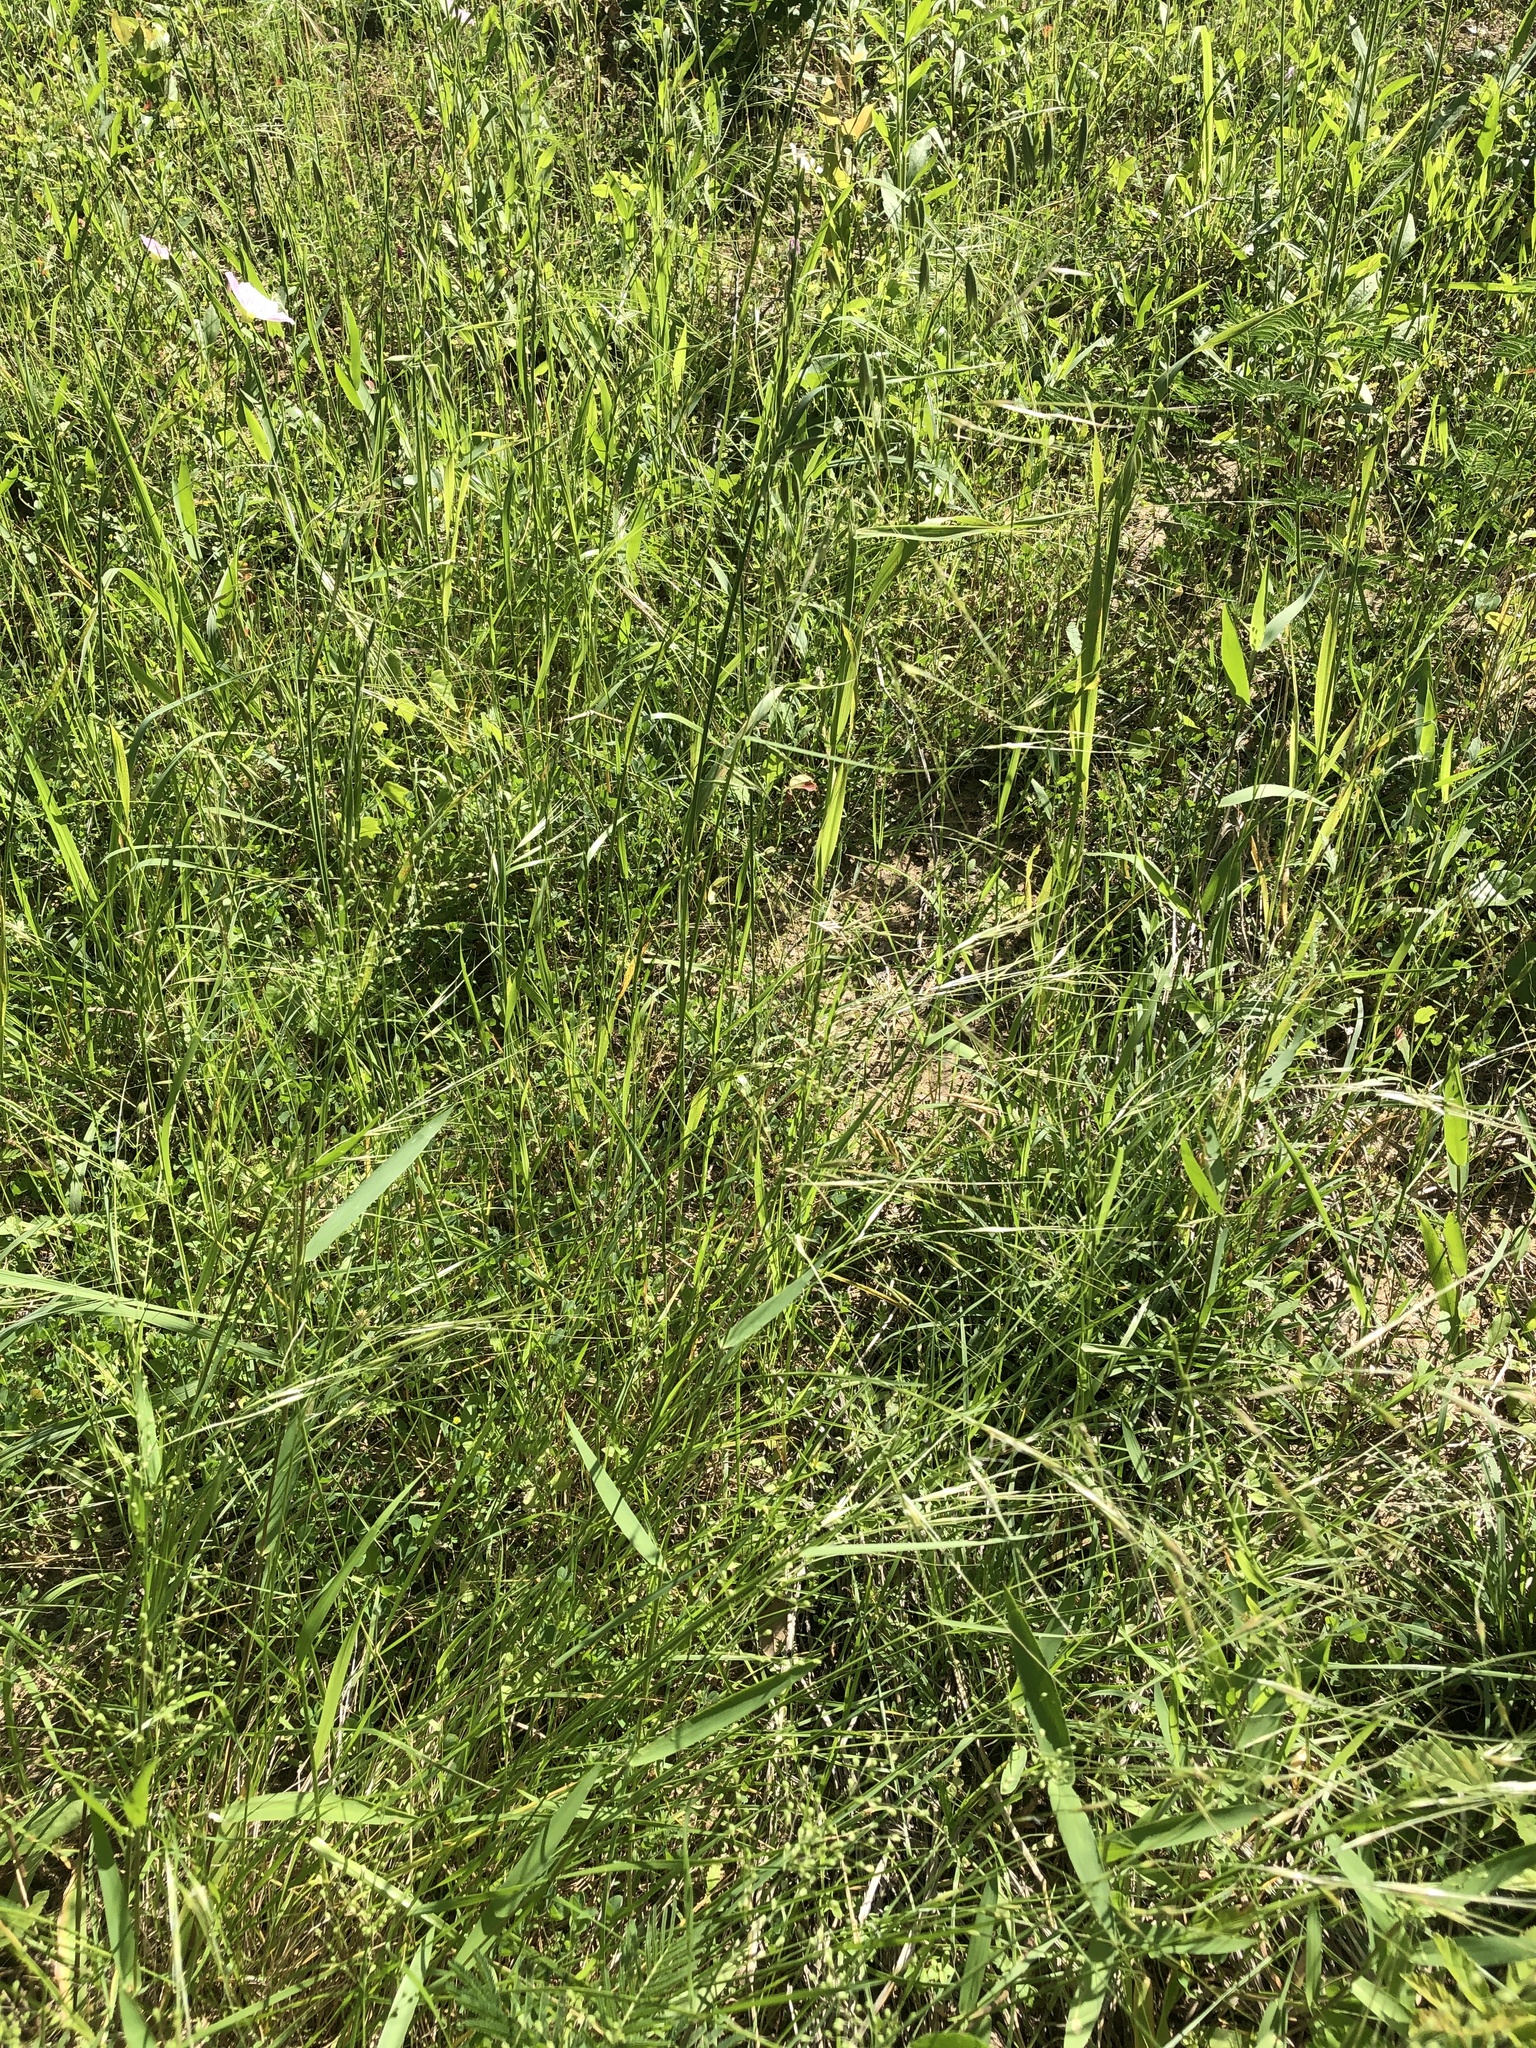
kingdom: Plantae
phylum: Tracheophyta
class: Liliopsida
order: Poales
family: Poaceae
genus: Nassella
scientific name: Nassella leucotricha
